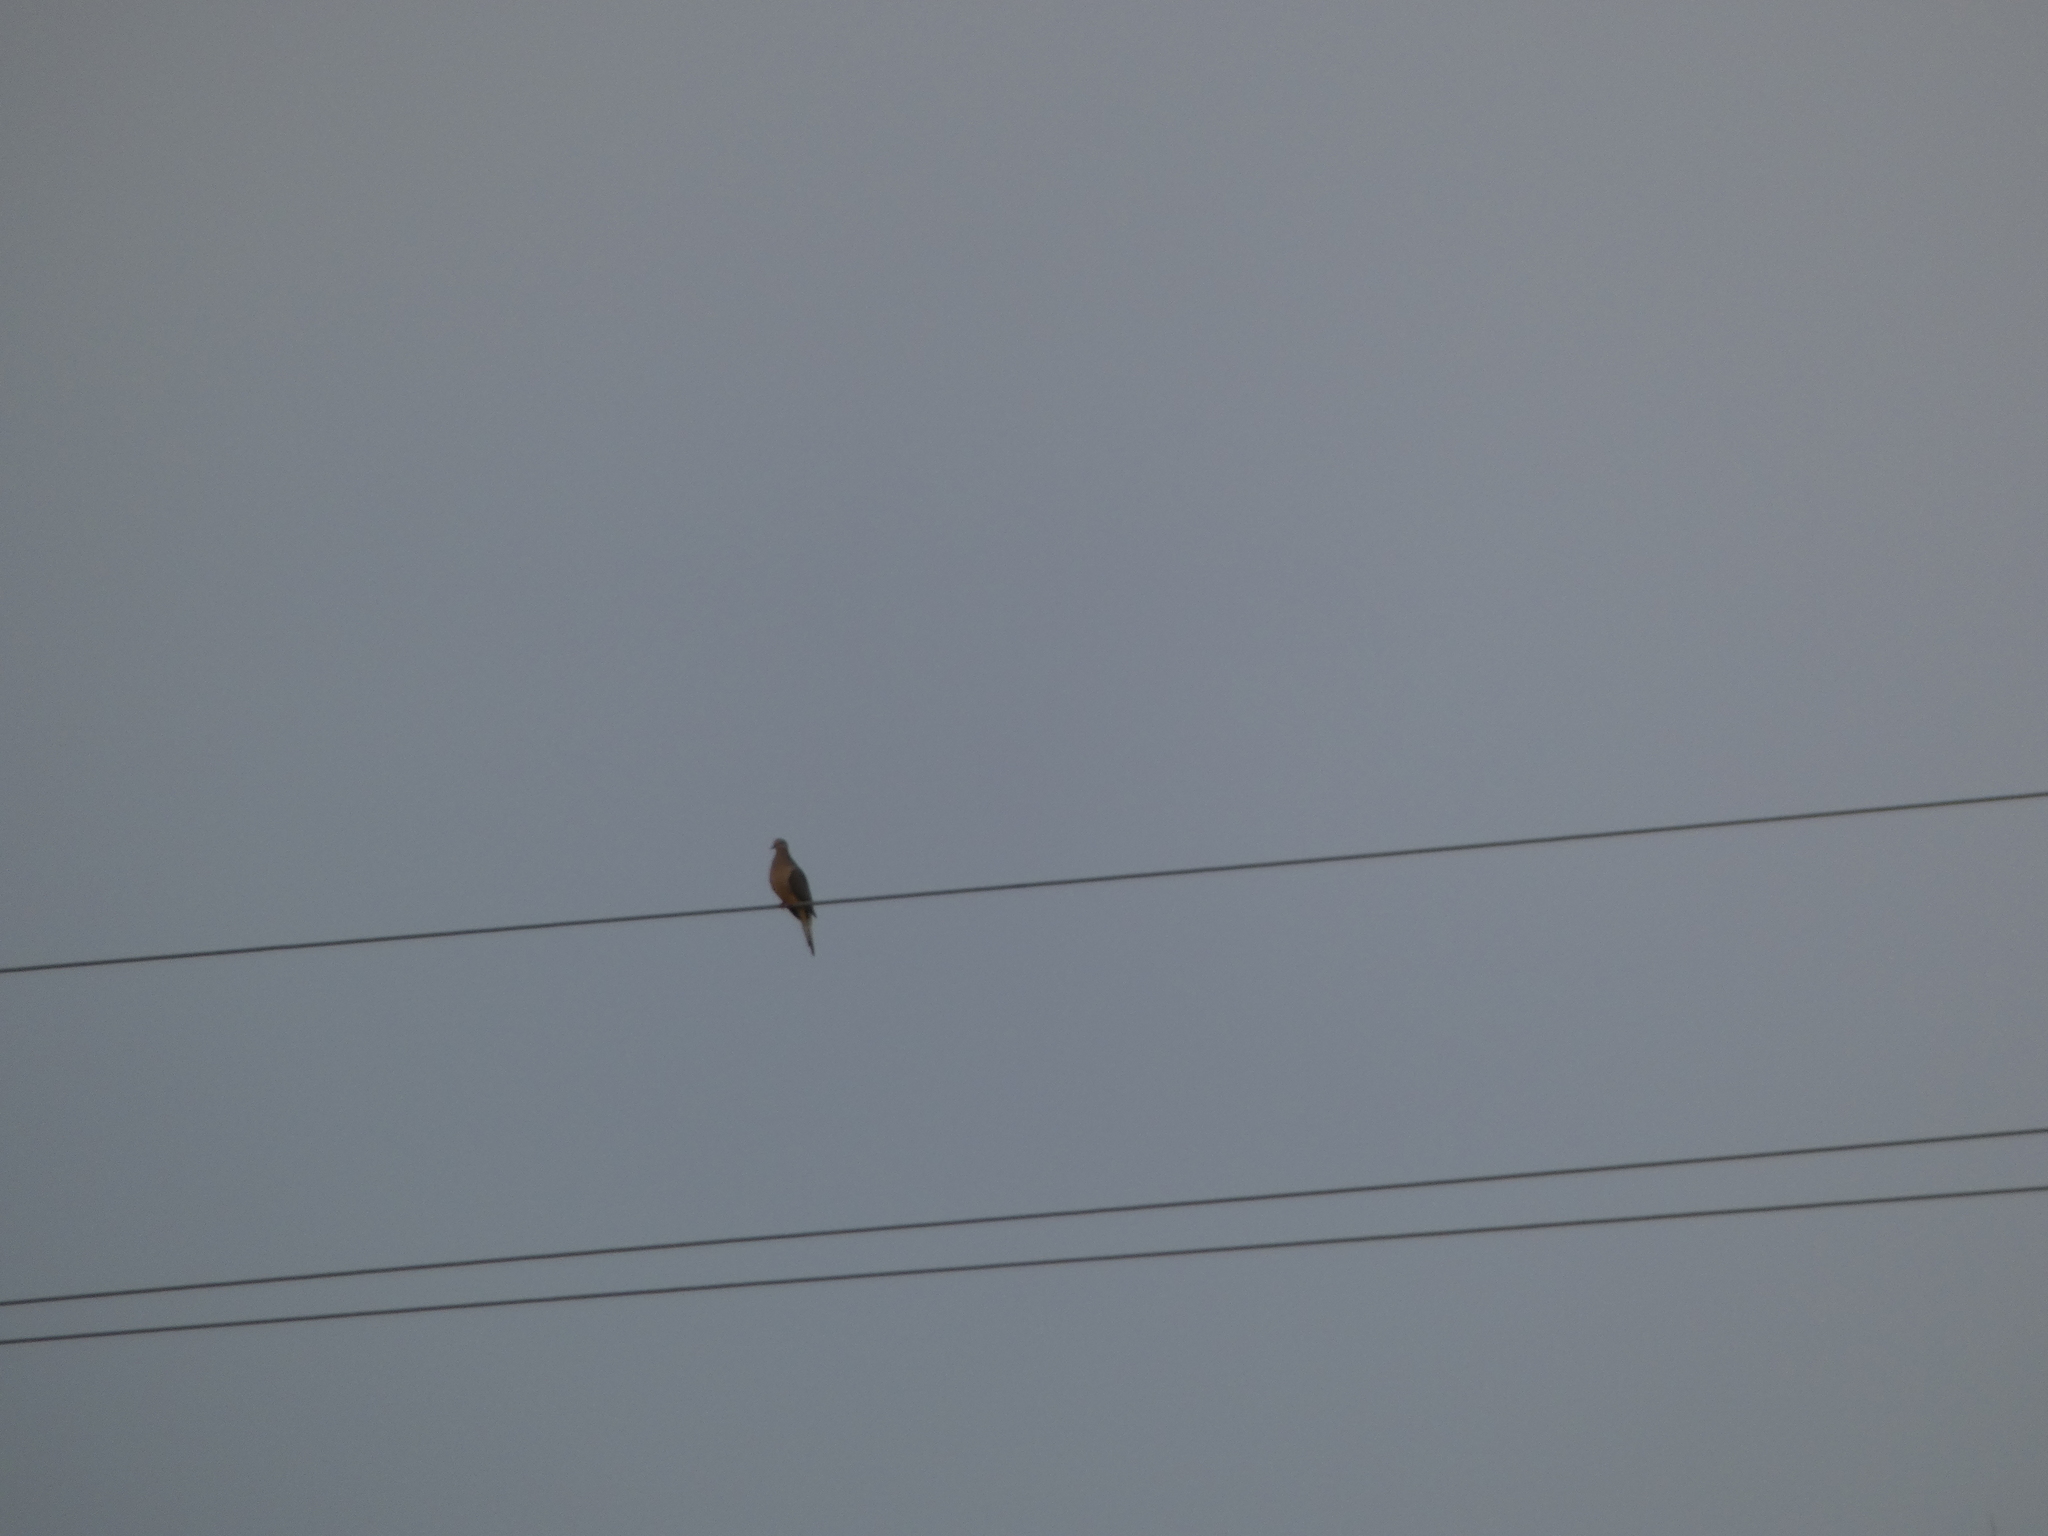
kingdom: Animalia
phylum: Chordata
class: Aves
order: Columbiformes
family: Columbidae
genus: Zenaida
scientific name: Zenaida macroura
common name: Mourning dove
